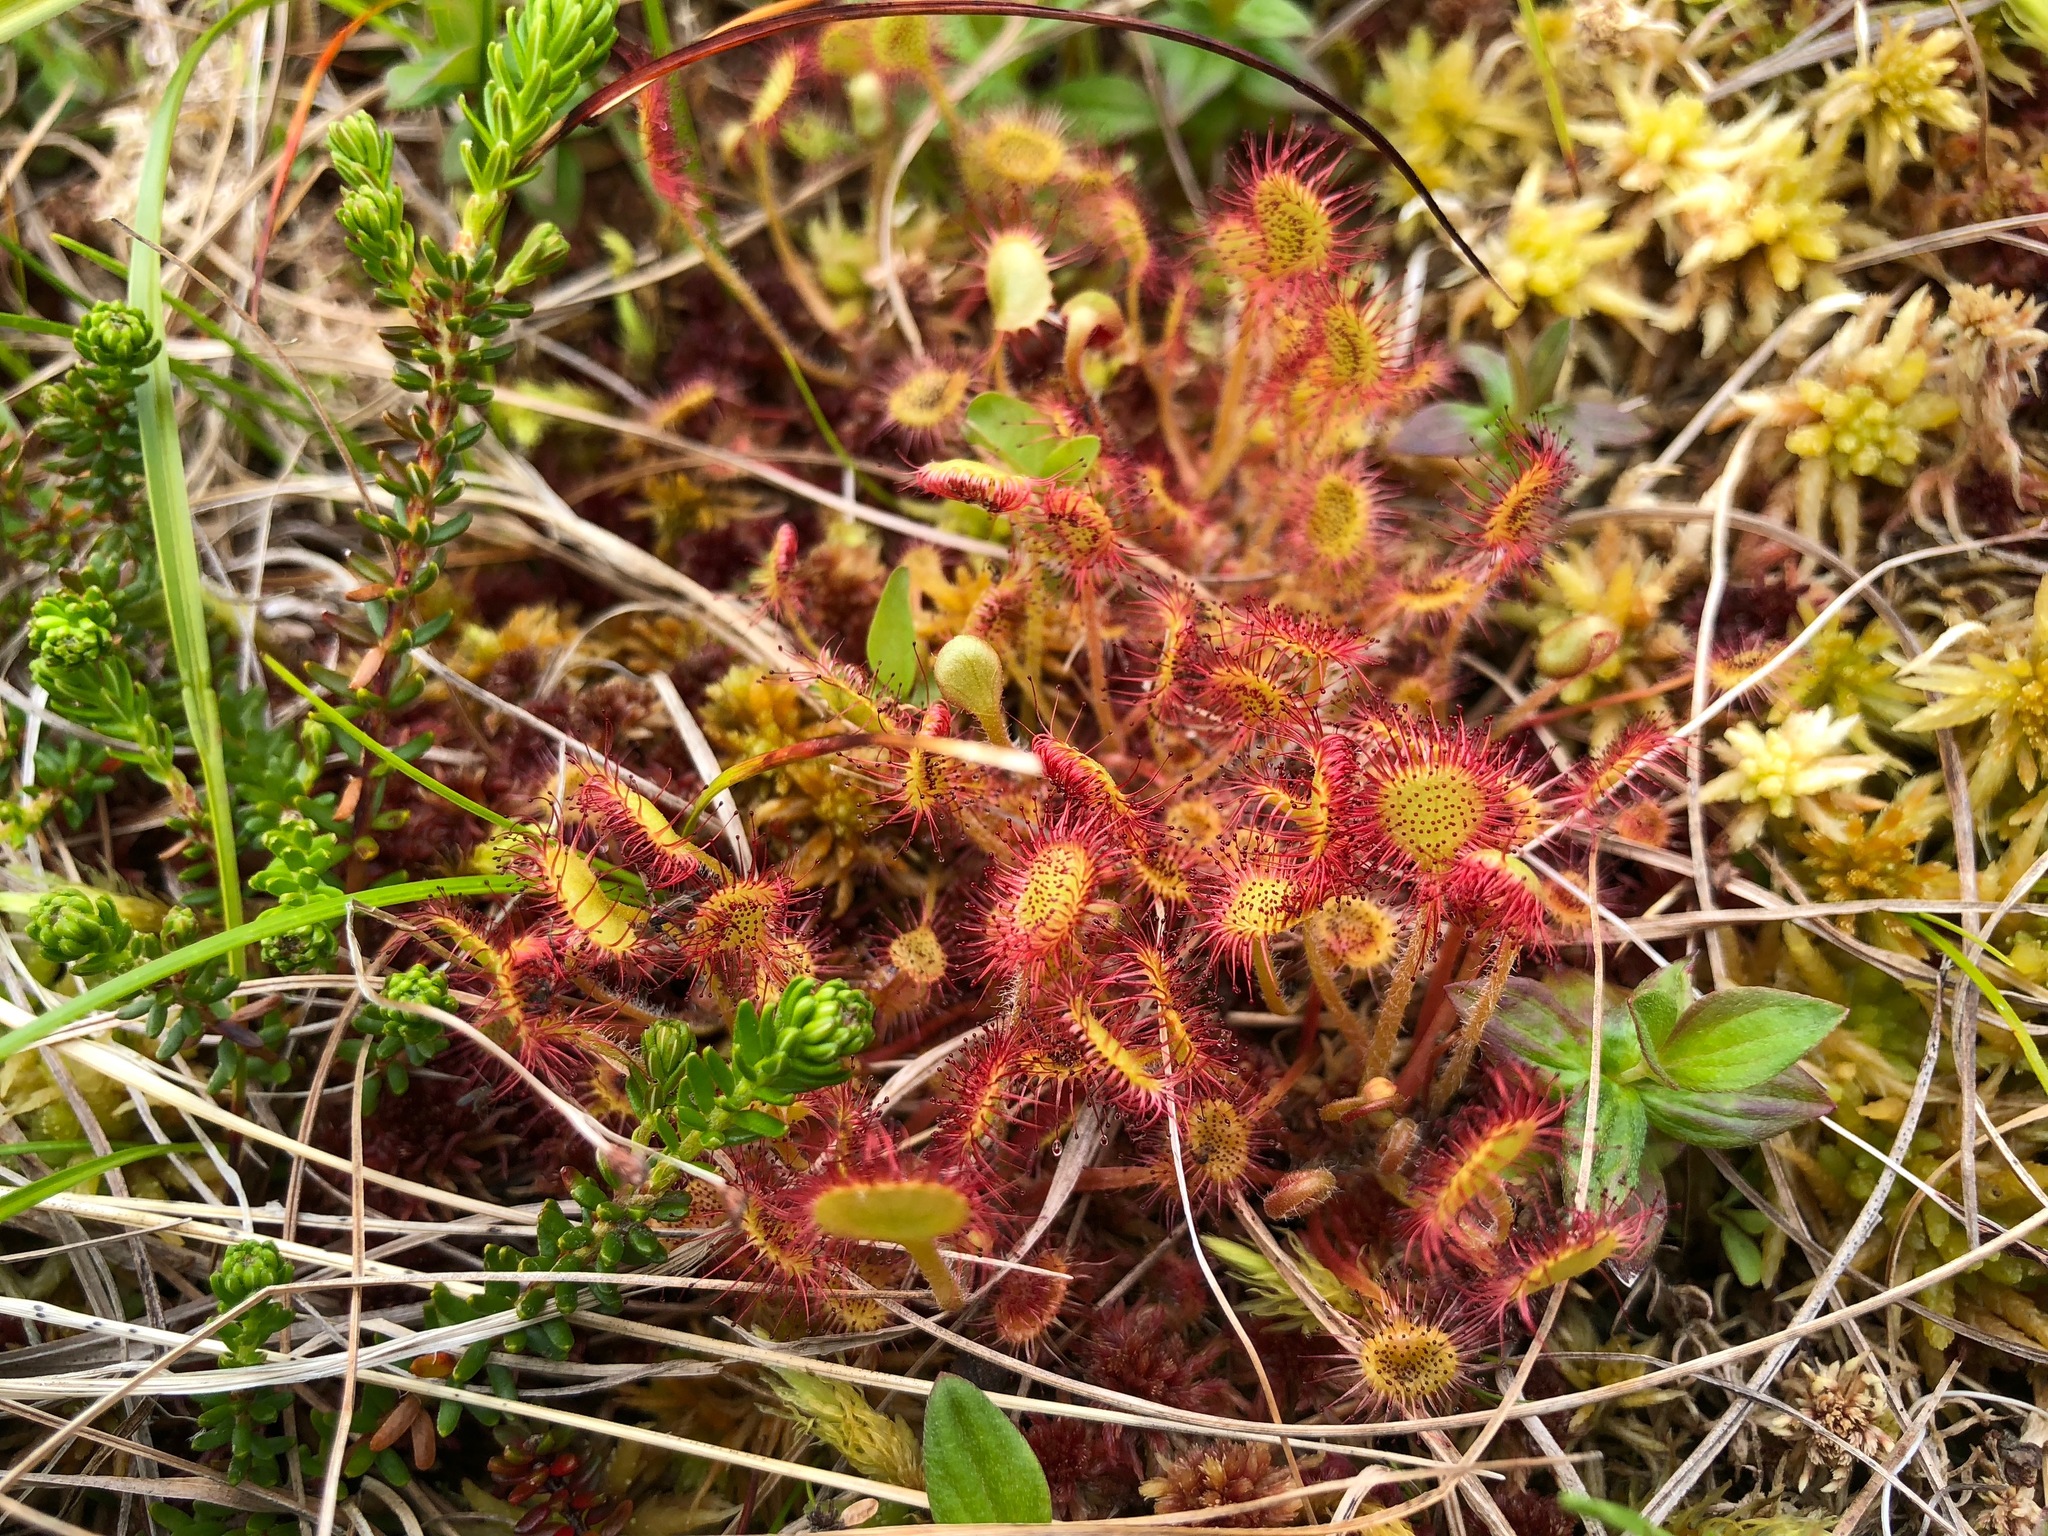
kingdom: Plantae
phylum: Tracheophyta
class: Magnoliopsida
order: Caryophyllales
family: Droseraceae
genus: Drosera
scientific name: Drosera rotundifolia
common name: Round-leaved sundew
